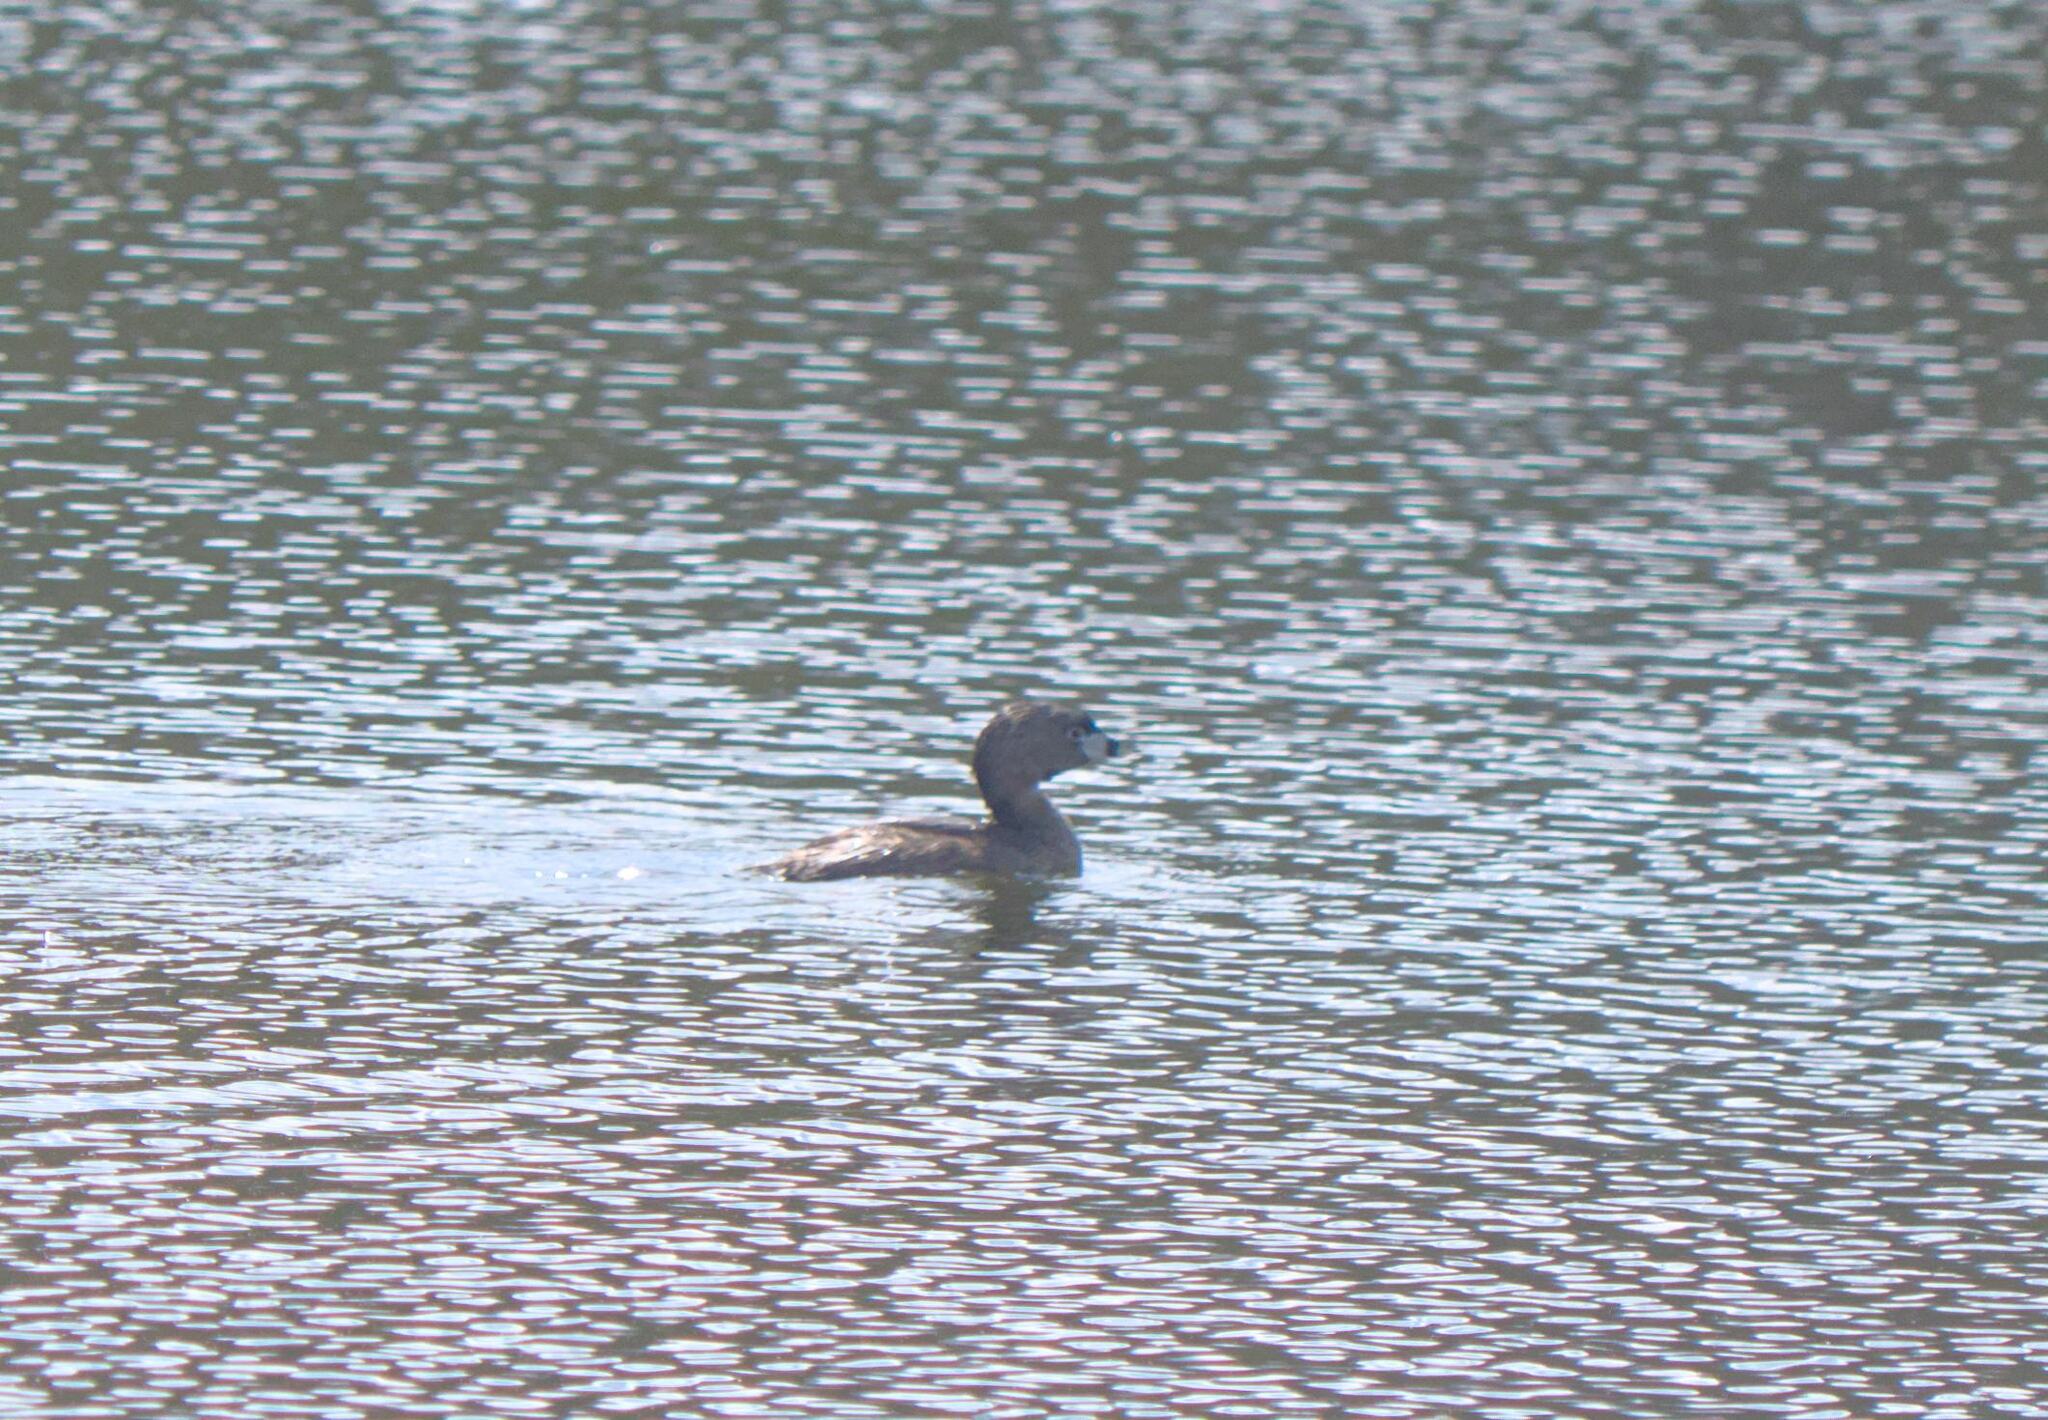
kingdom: Animalia
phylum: Chordata
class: Aves
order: Podicipediformes
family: Podicipedidae
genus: Podilymbus
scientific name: Podilymbus podiceps
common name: Pied-billed grebe
